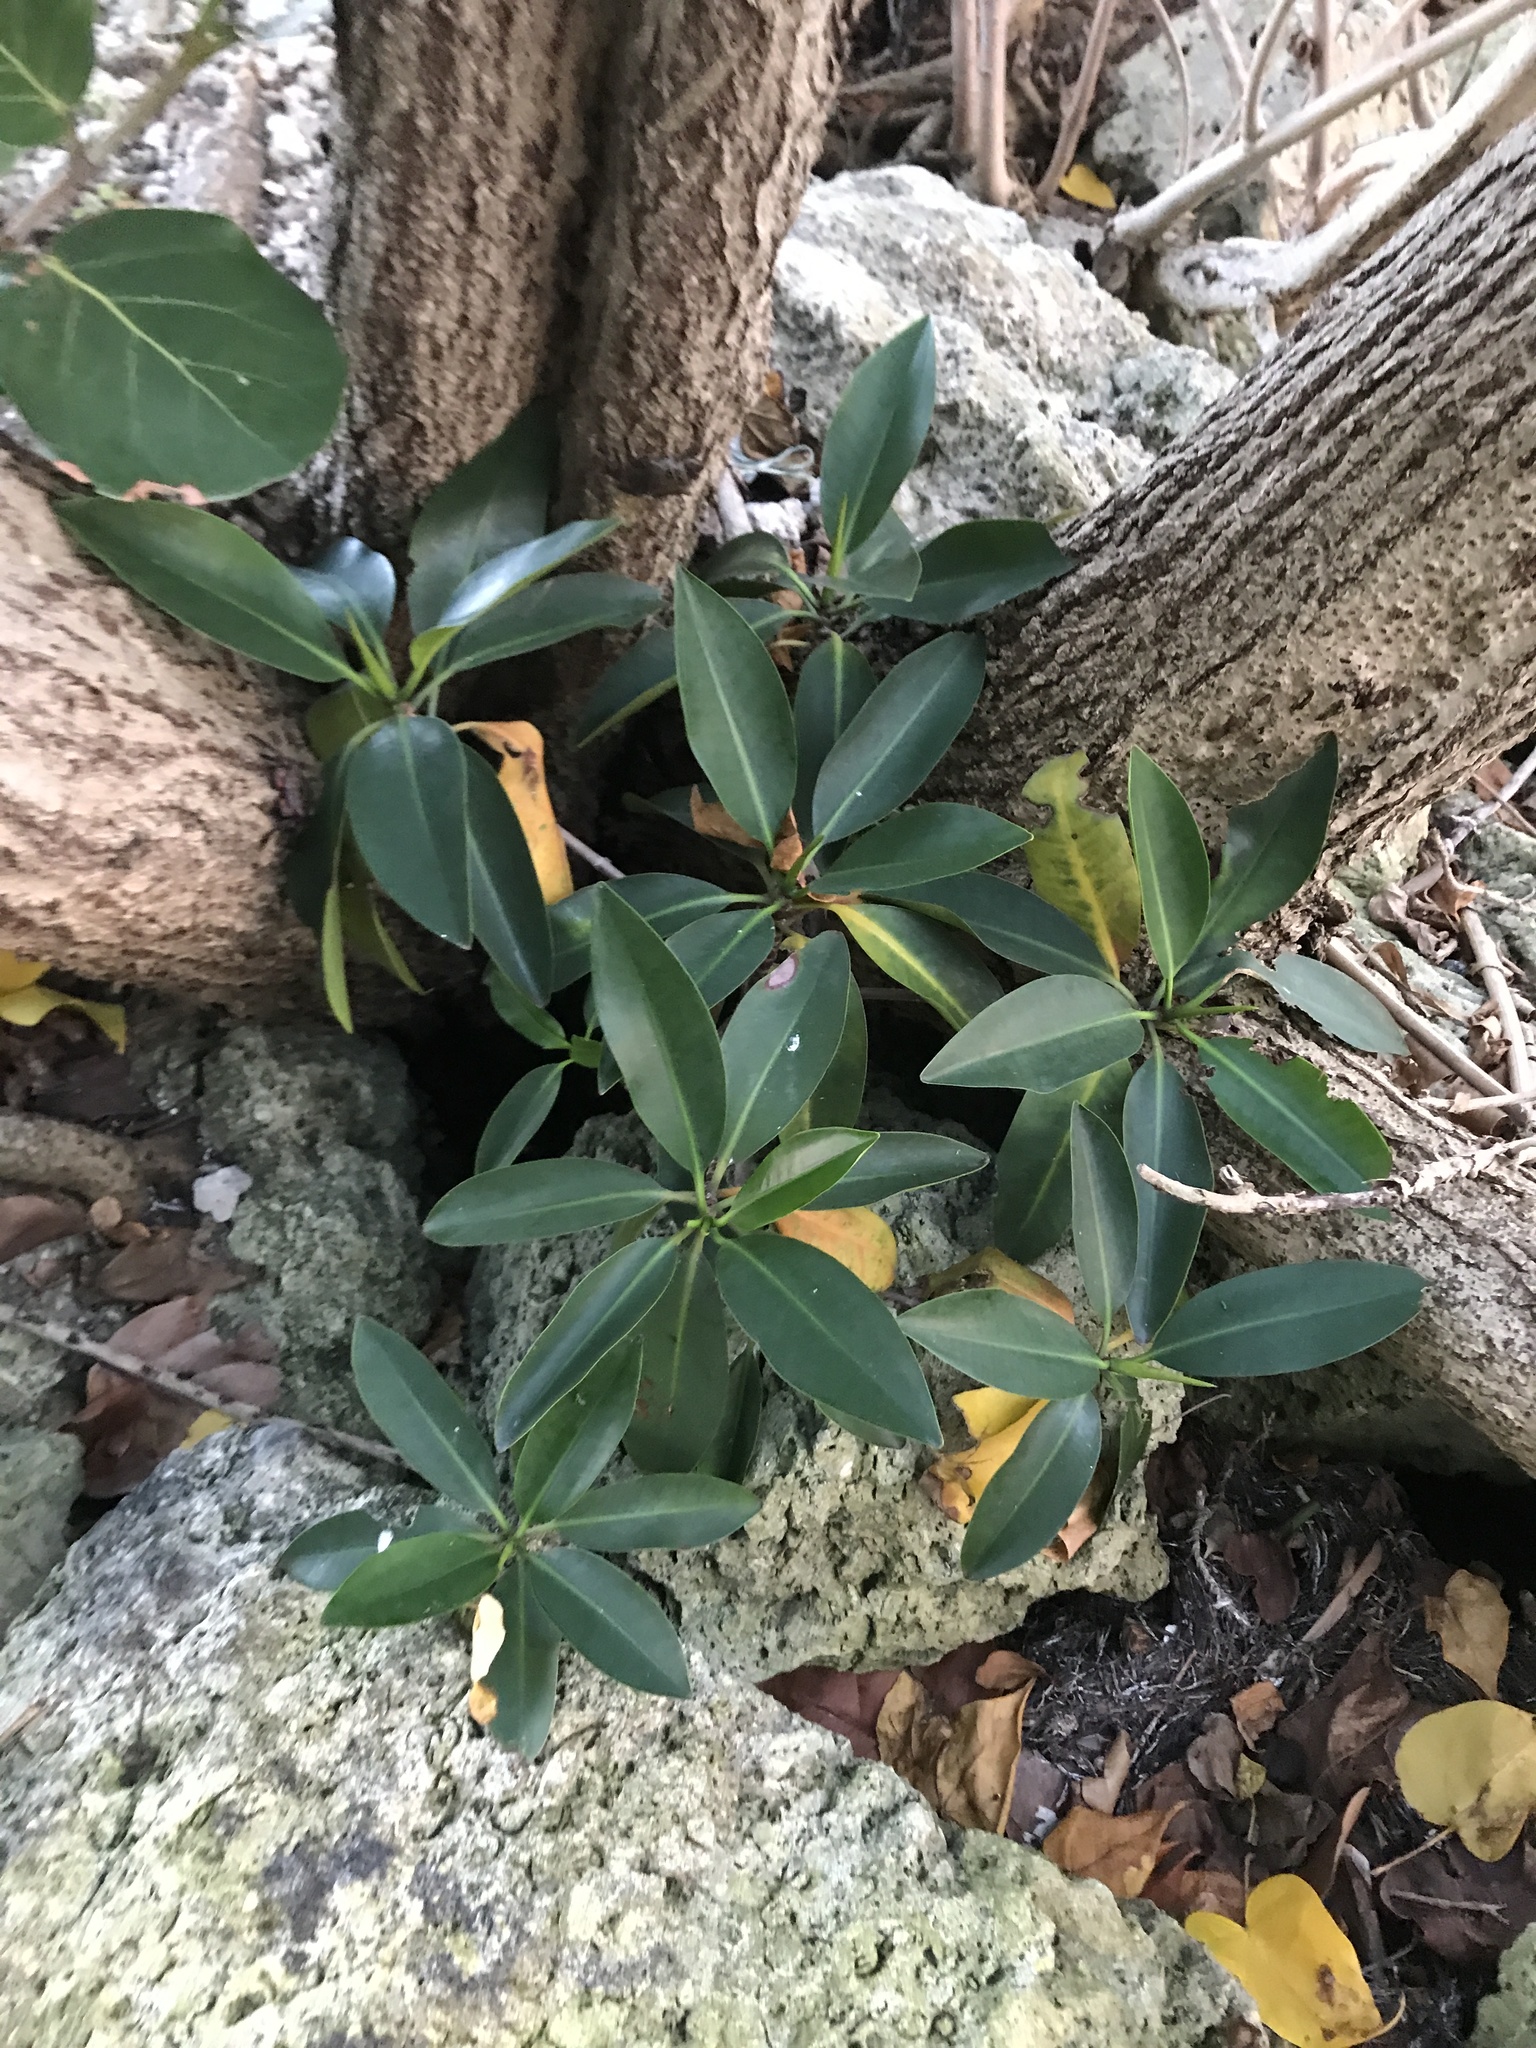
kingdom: Plantae
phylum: Tracheophyta
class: Magnoliopsida
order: Malpighiales
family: Rhizophoraceae
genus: Rhizophora
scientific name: Rhizophora mangle
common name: Red mangrove
